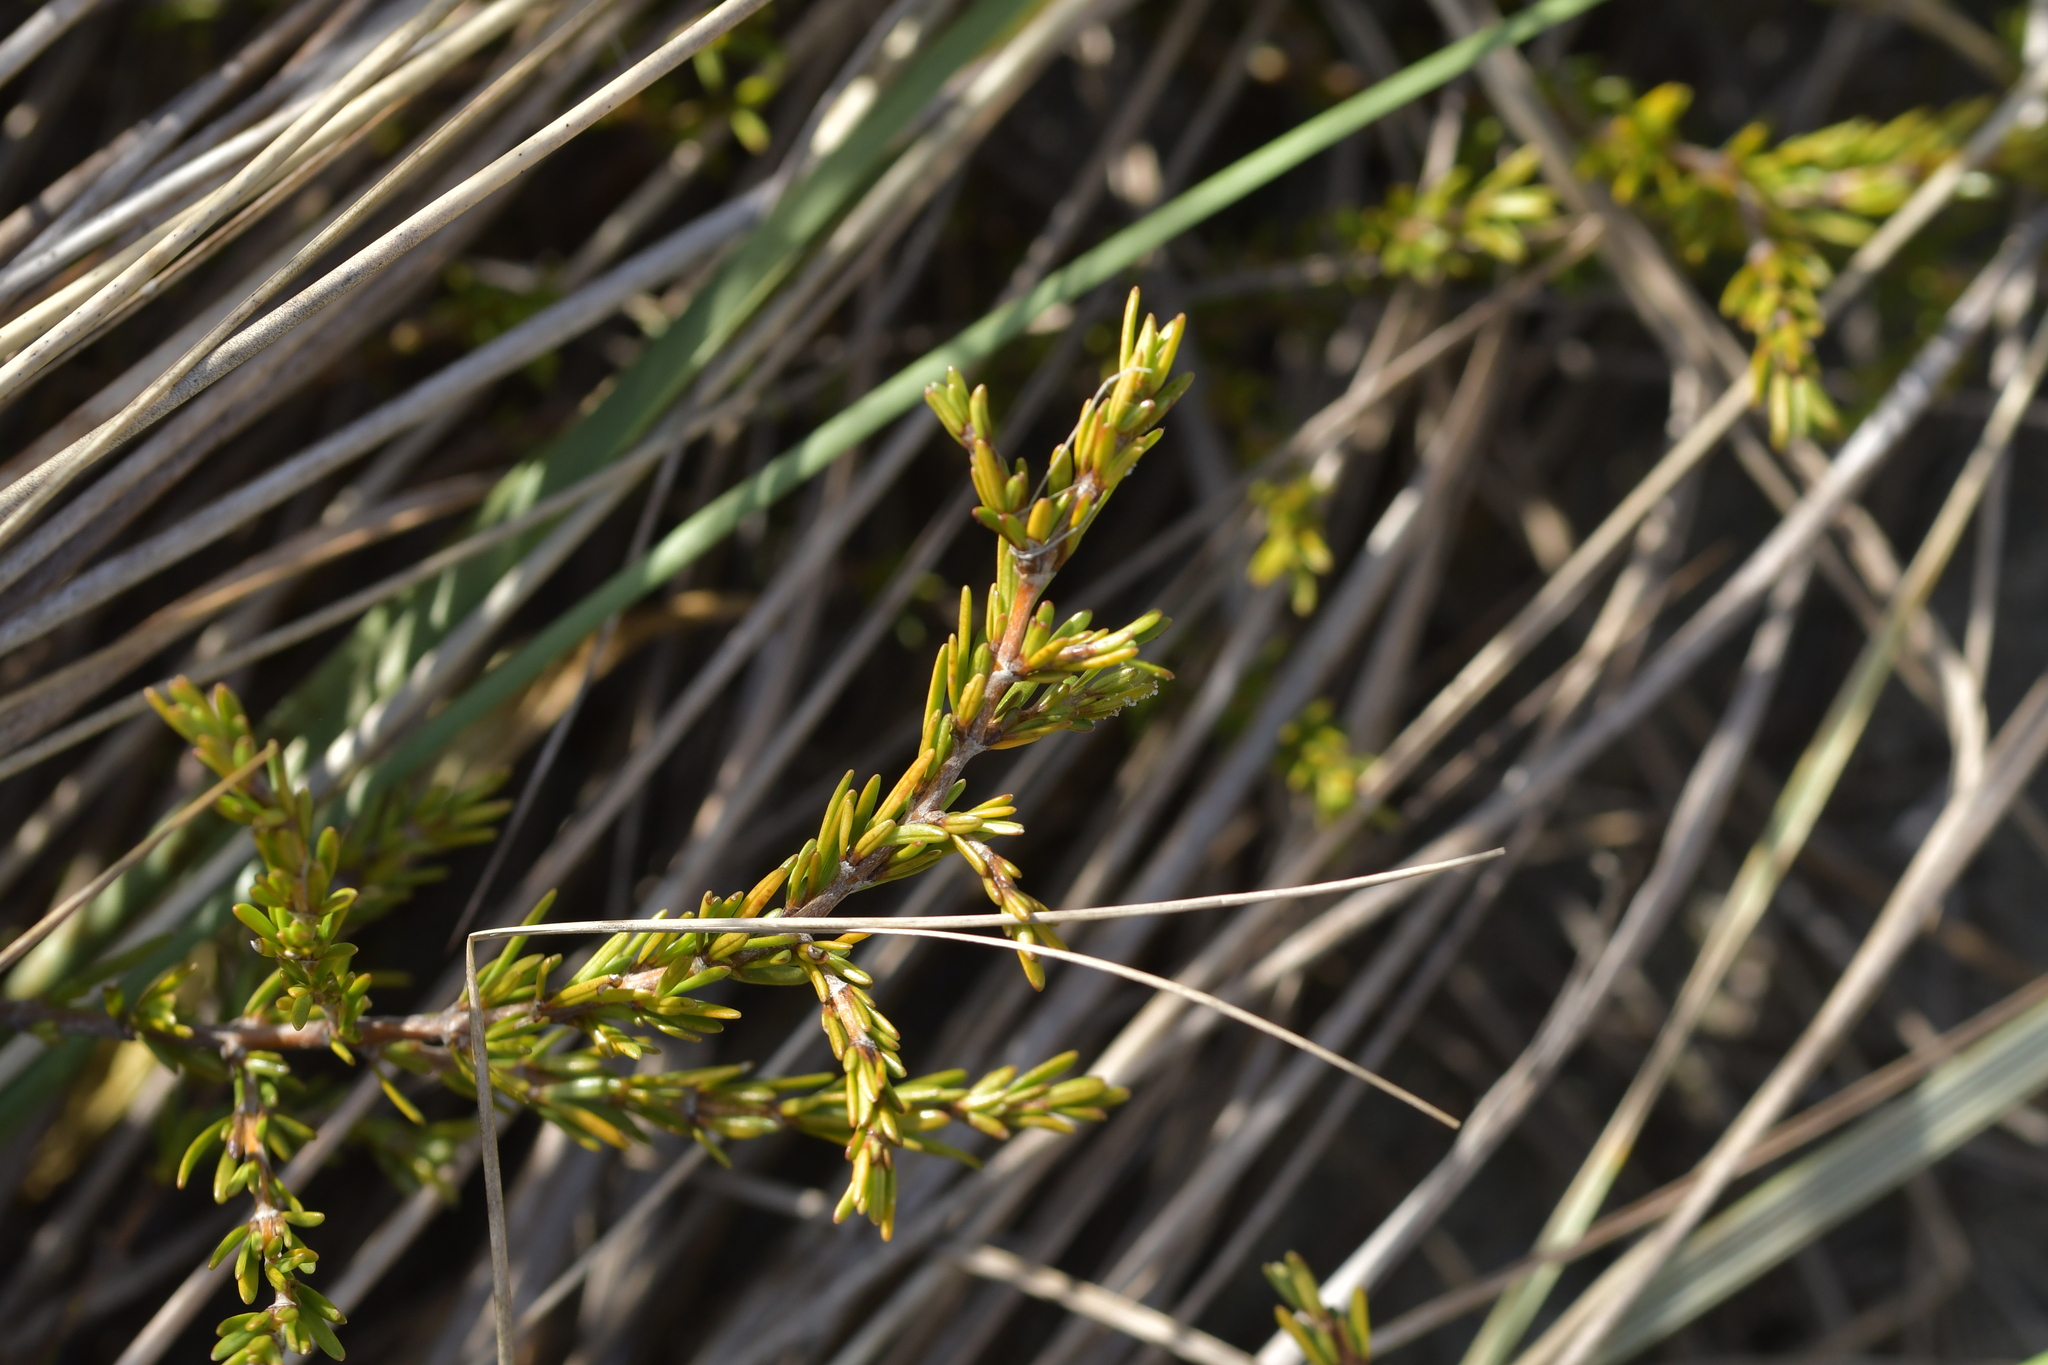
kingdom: Plantae
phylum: Tracheophyta
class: Magnoliopsida
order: Gentianales
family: Rubiaceae
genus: Coprosma
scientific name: Coprosma acerosa
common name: Sand coprosma
